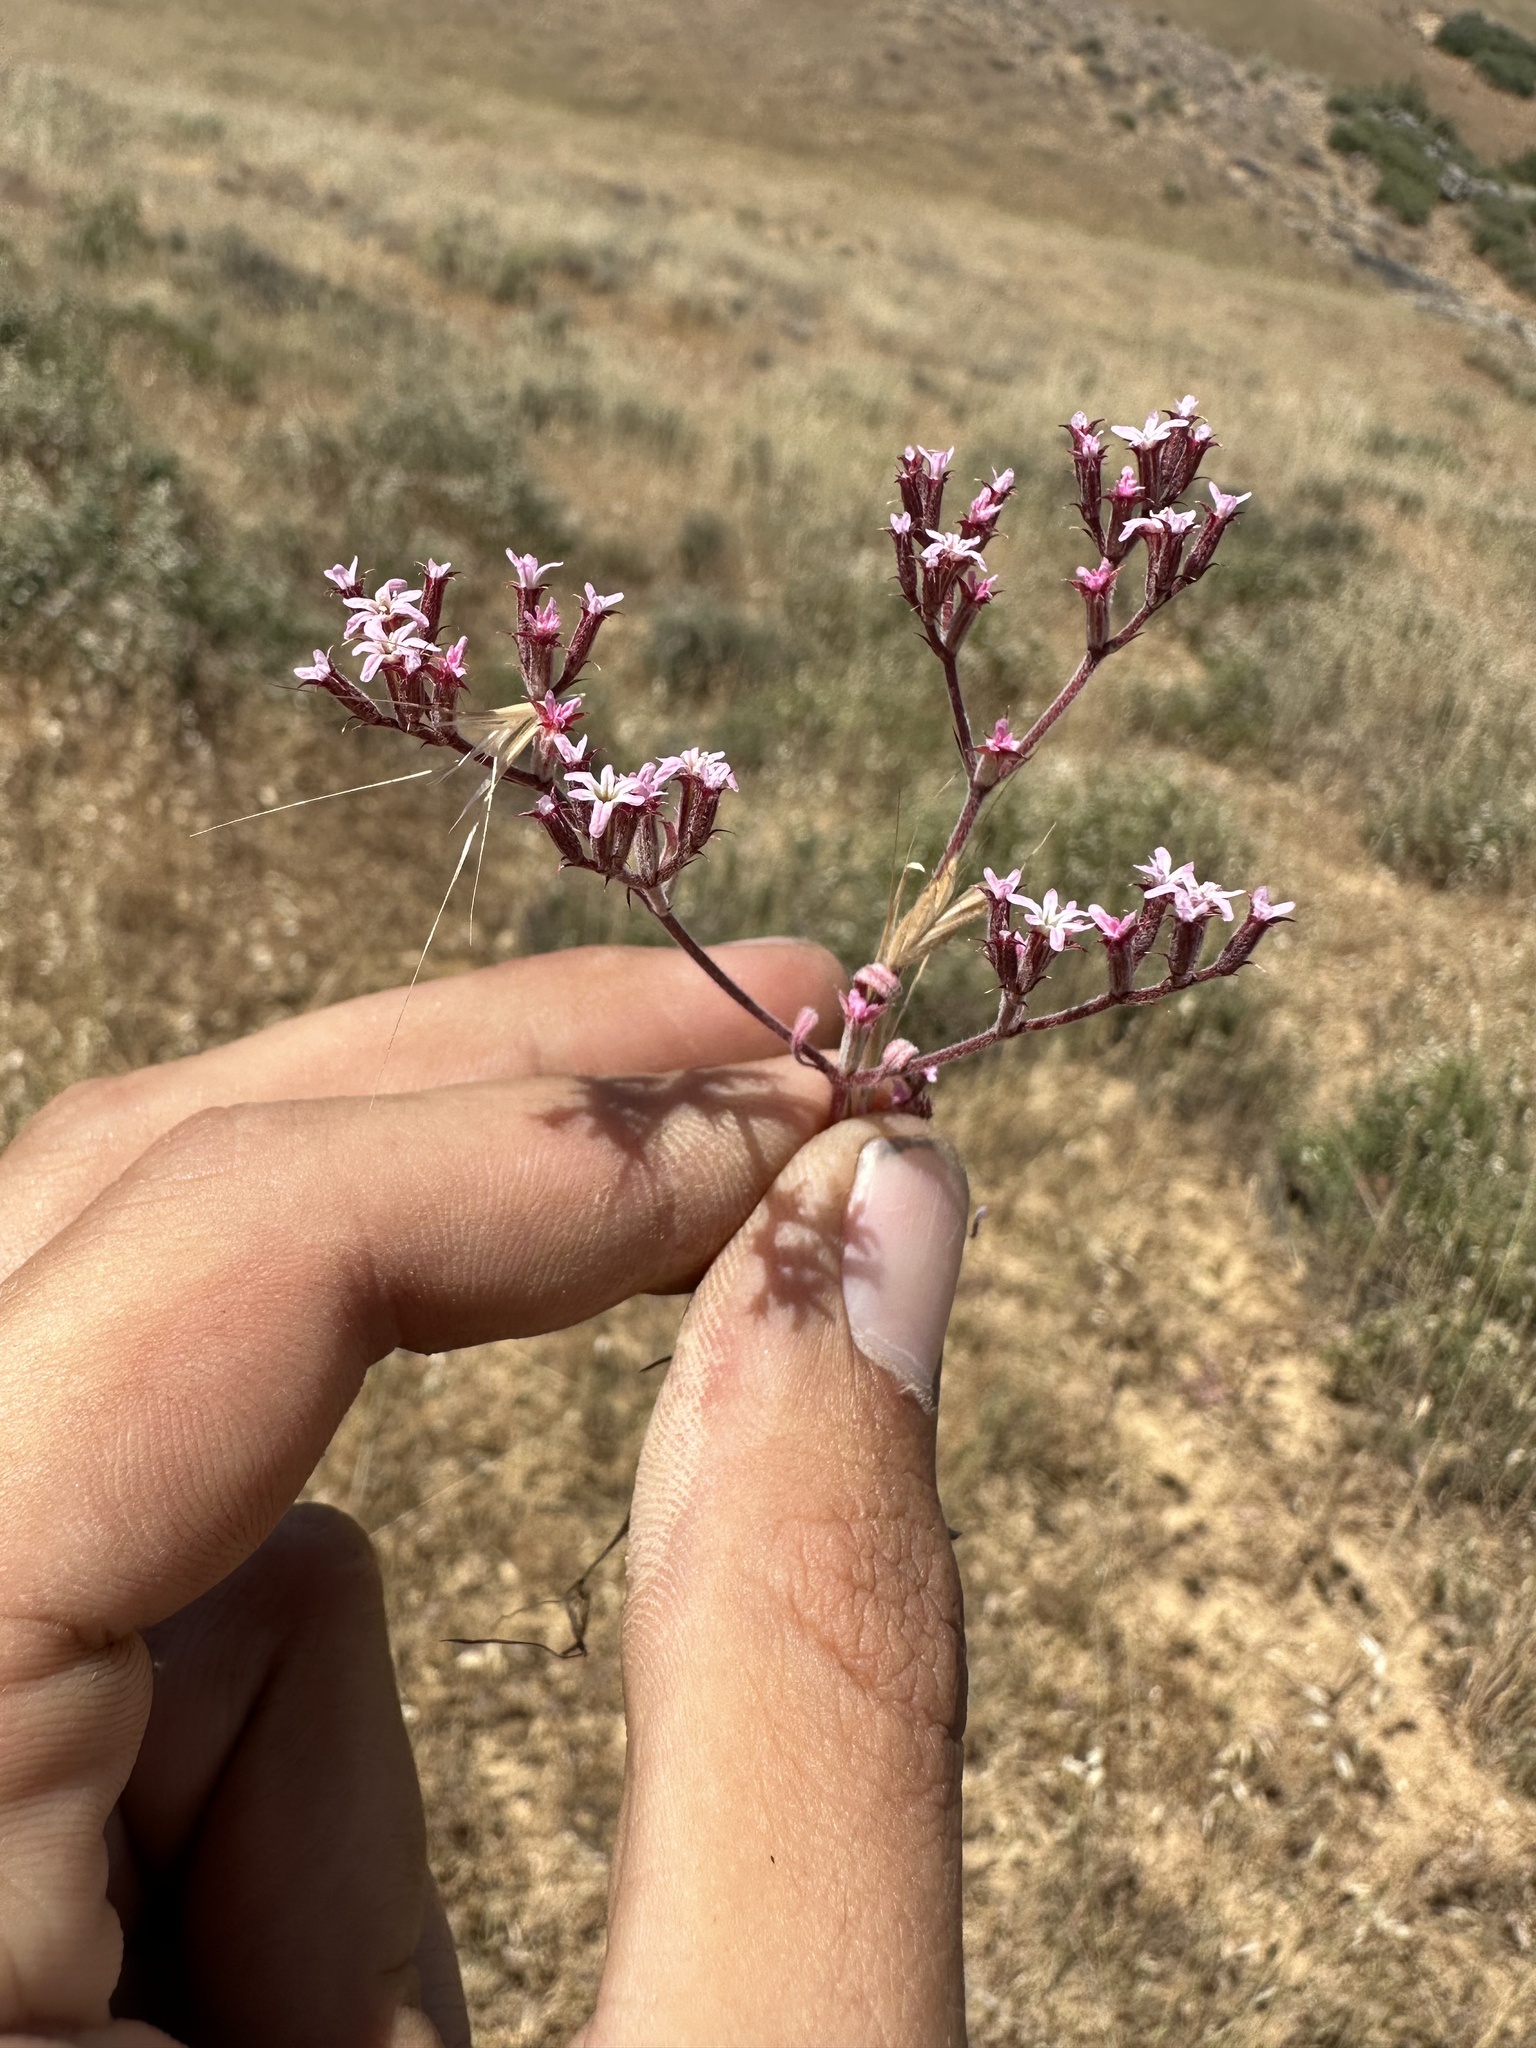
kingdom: Plantae
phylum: Tracheophyta
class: Magnoliopsida
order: Caryophyllales
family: Polygonaceae
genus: Chorizanthe
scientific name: Chorizanthe xanti
